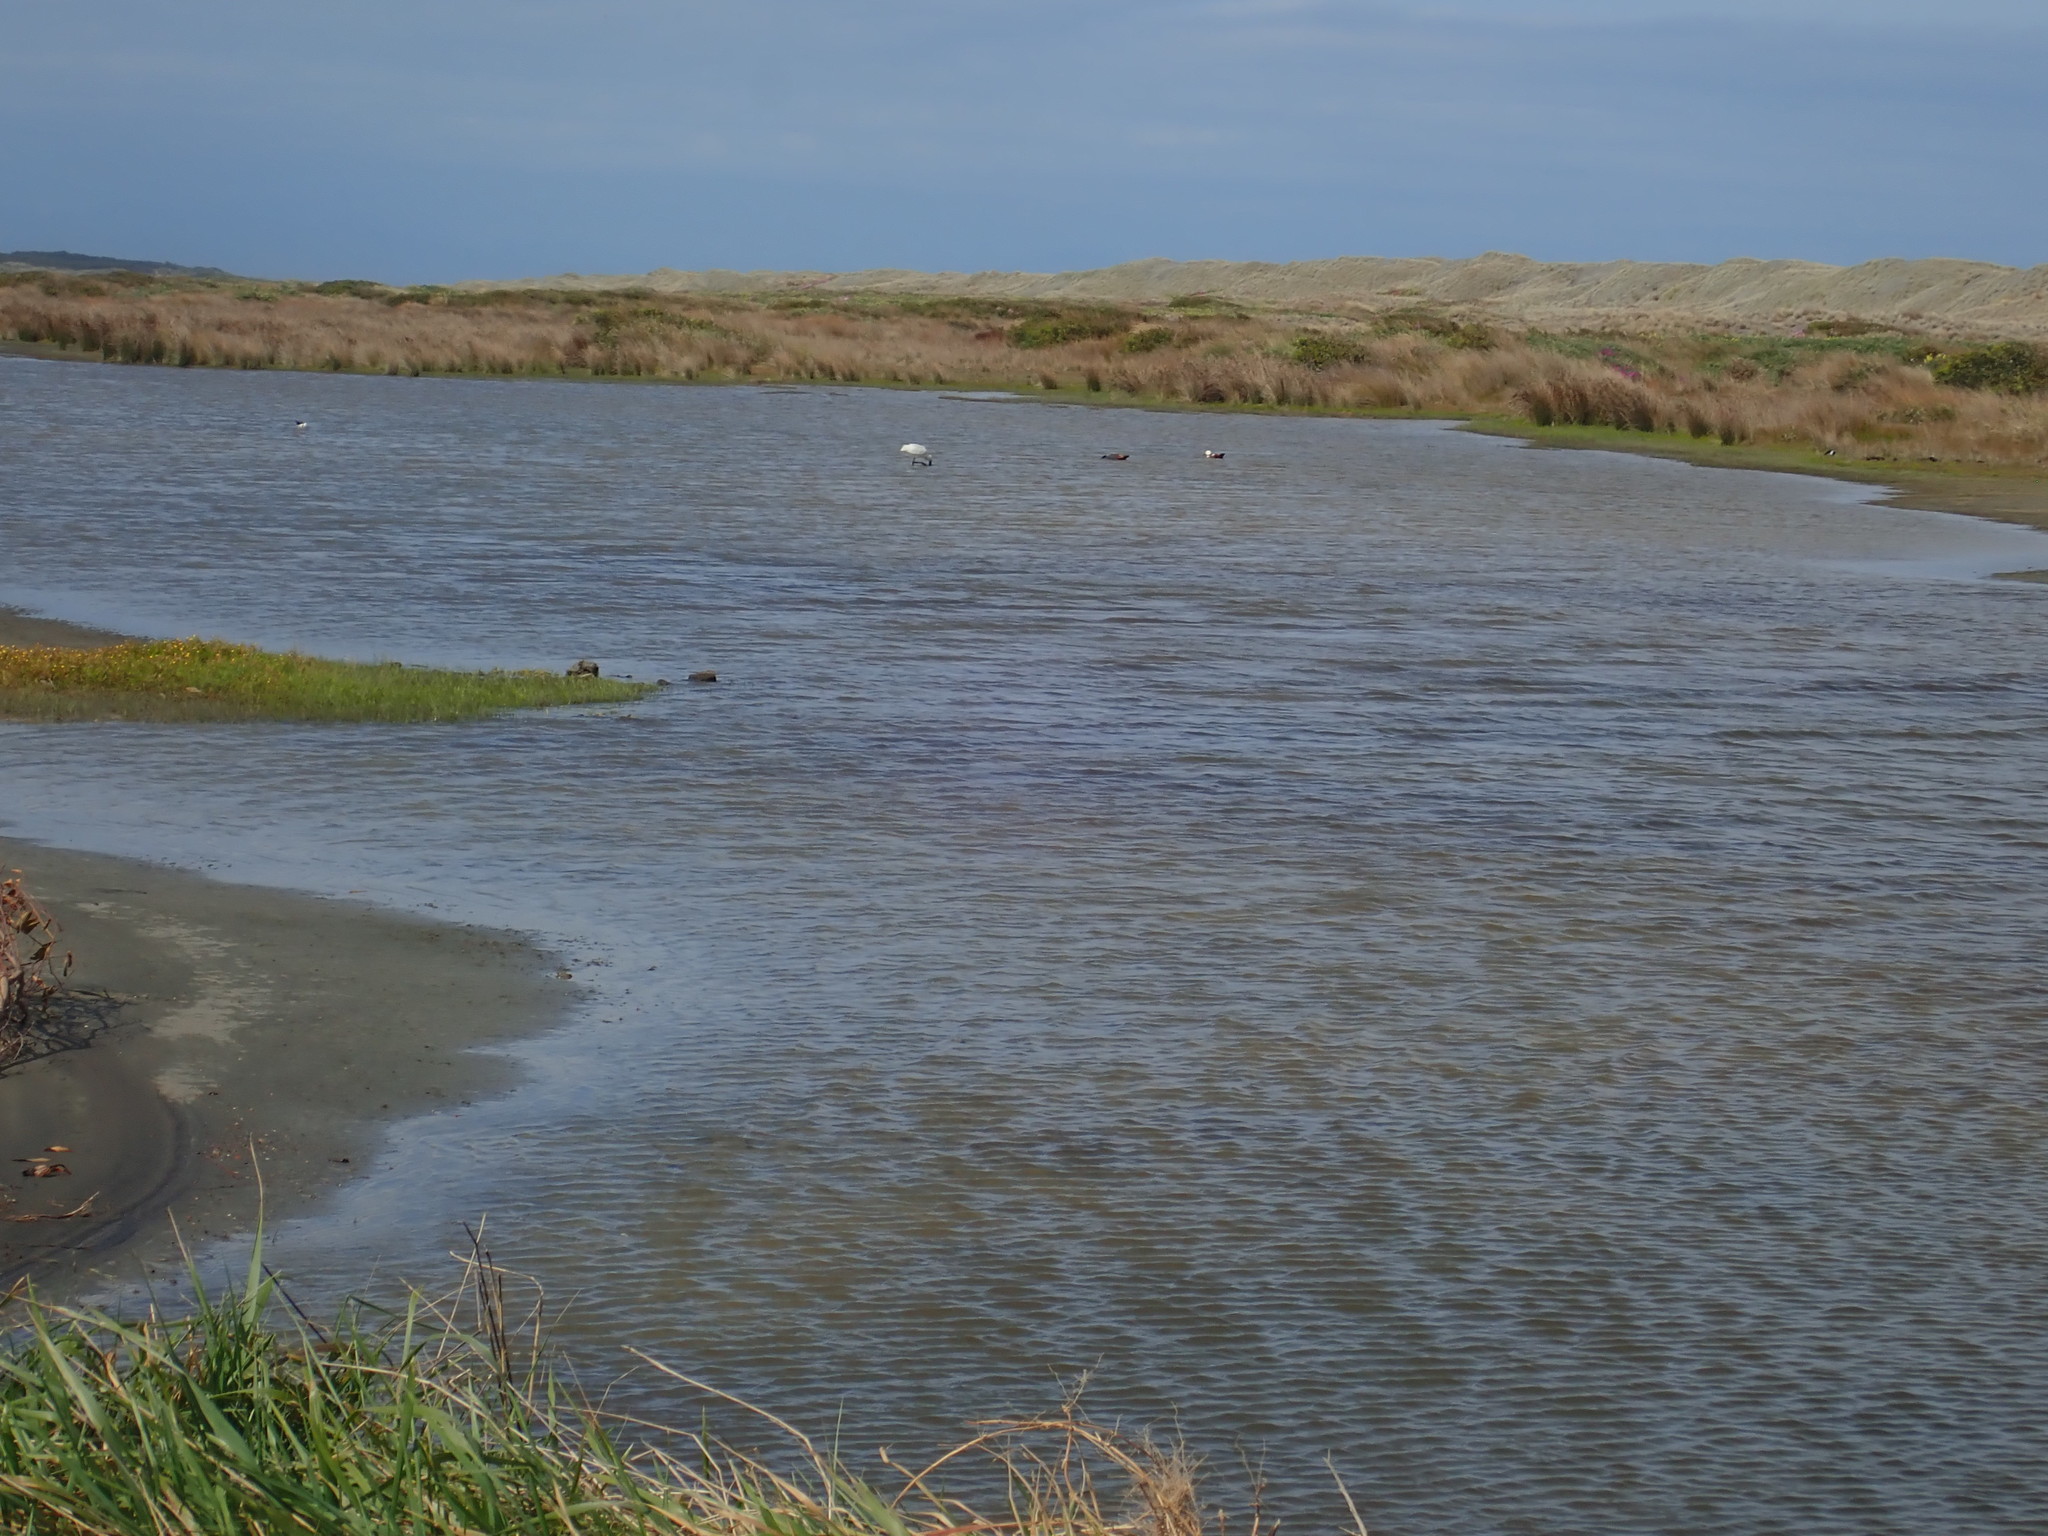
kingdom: Animalia
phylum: Chordata
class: Aves
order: Anseriformes
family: Anatidae
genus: Tadorna
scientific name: Tadorna variegata
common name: Paradise shelduck
